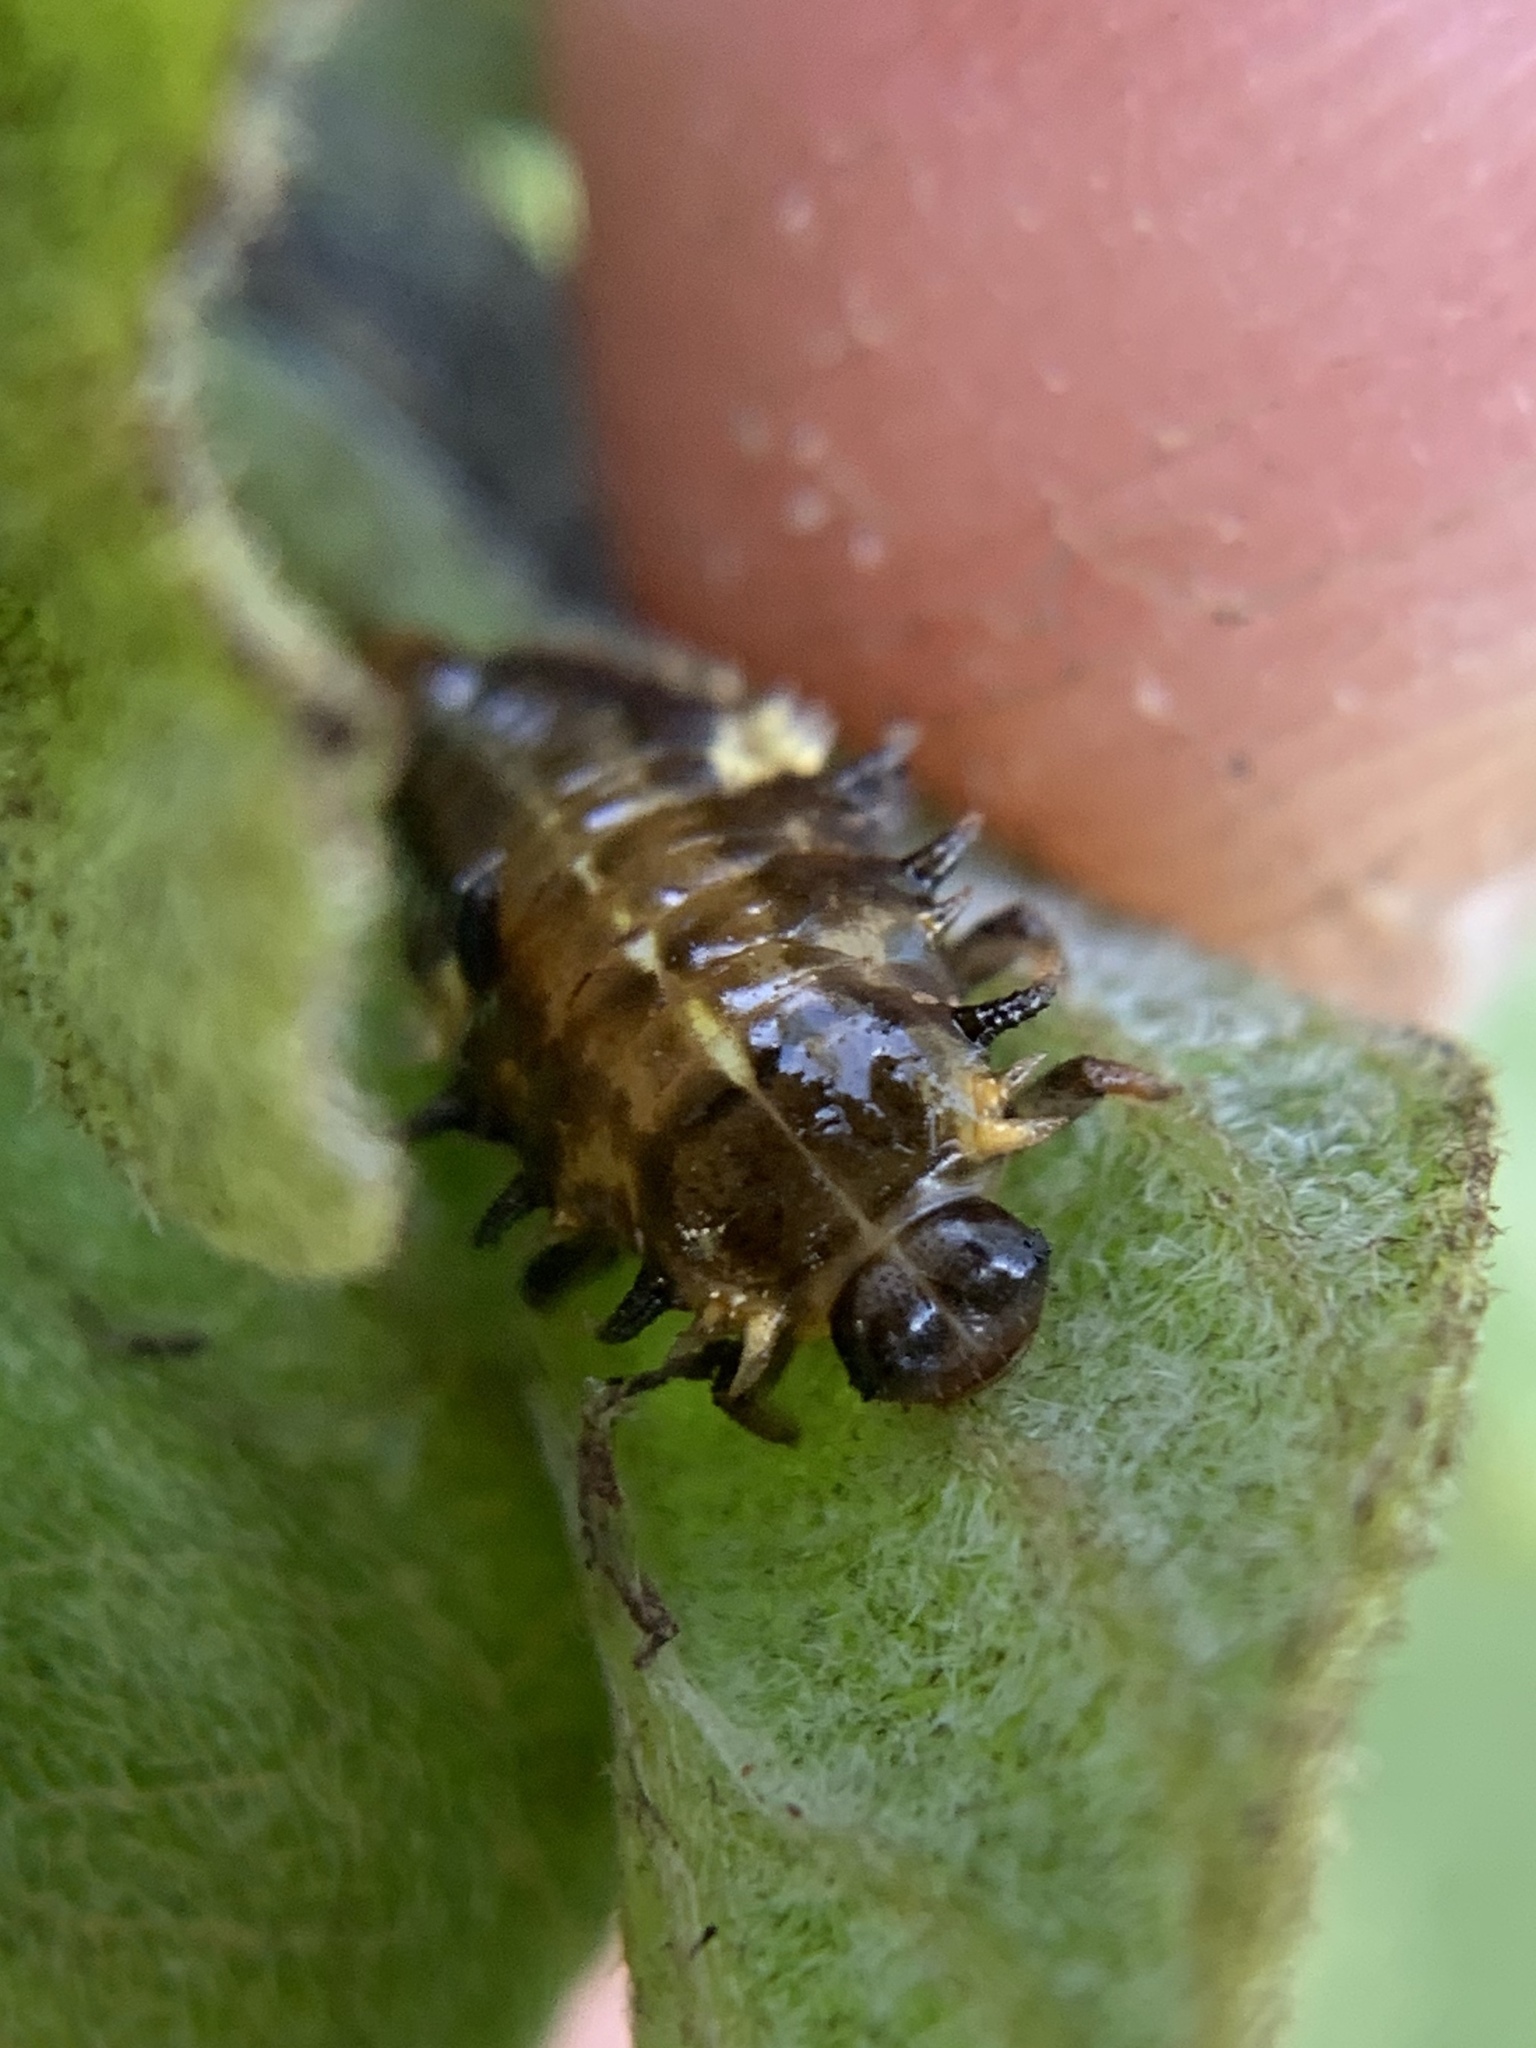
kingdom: Animalia
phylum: Arthropoda
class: Insecta
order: Coleoptera
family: Chrysomelidae
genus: Eurypepla
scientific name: Eurypepla calochroma
